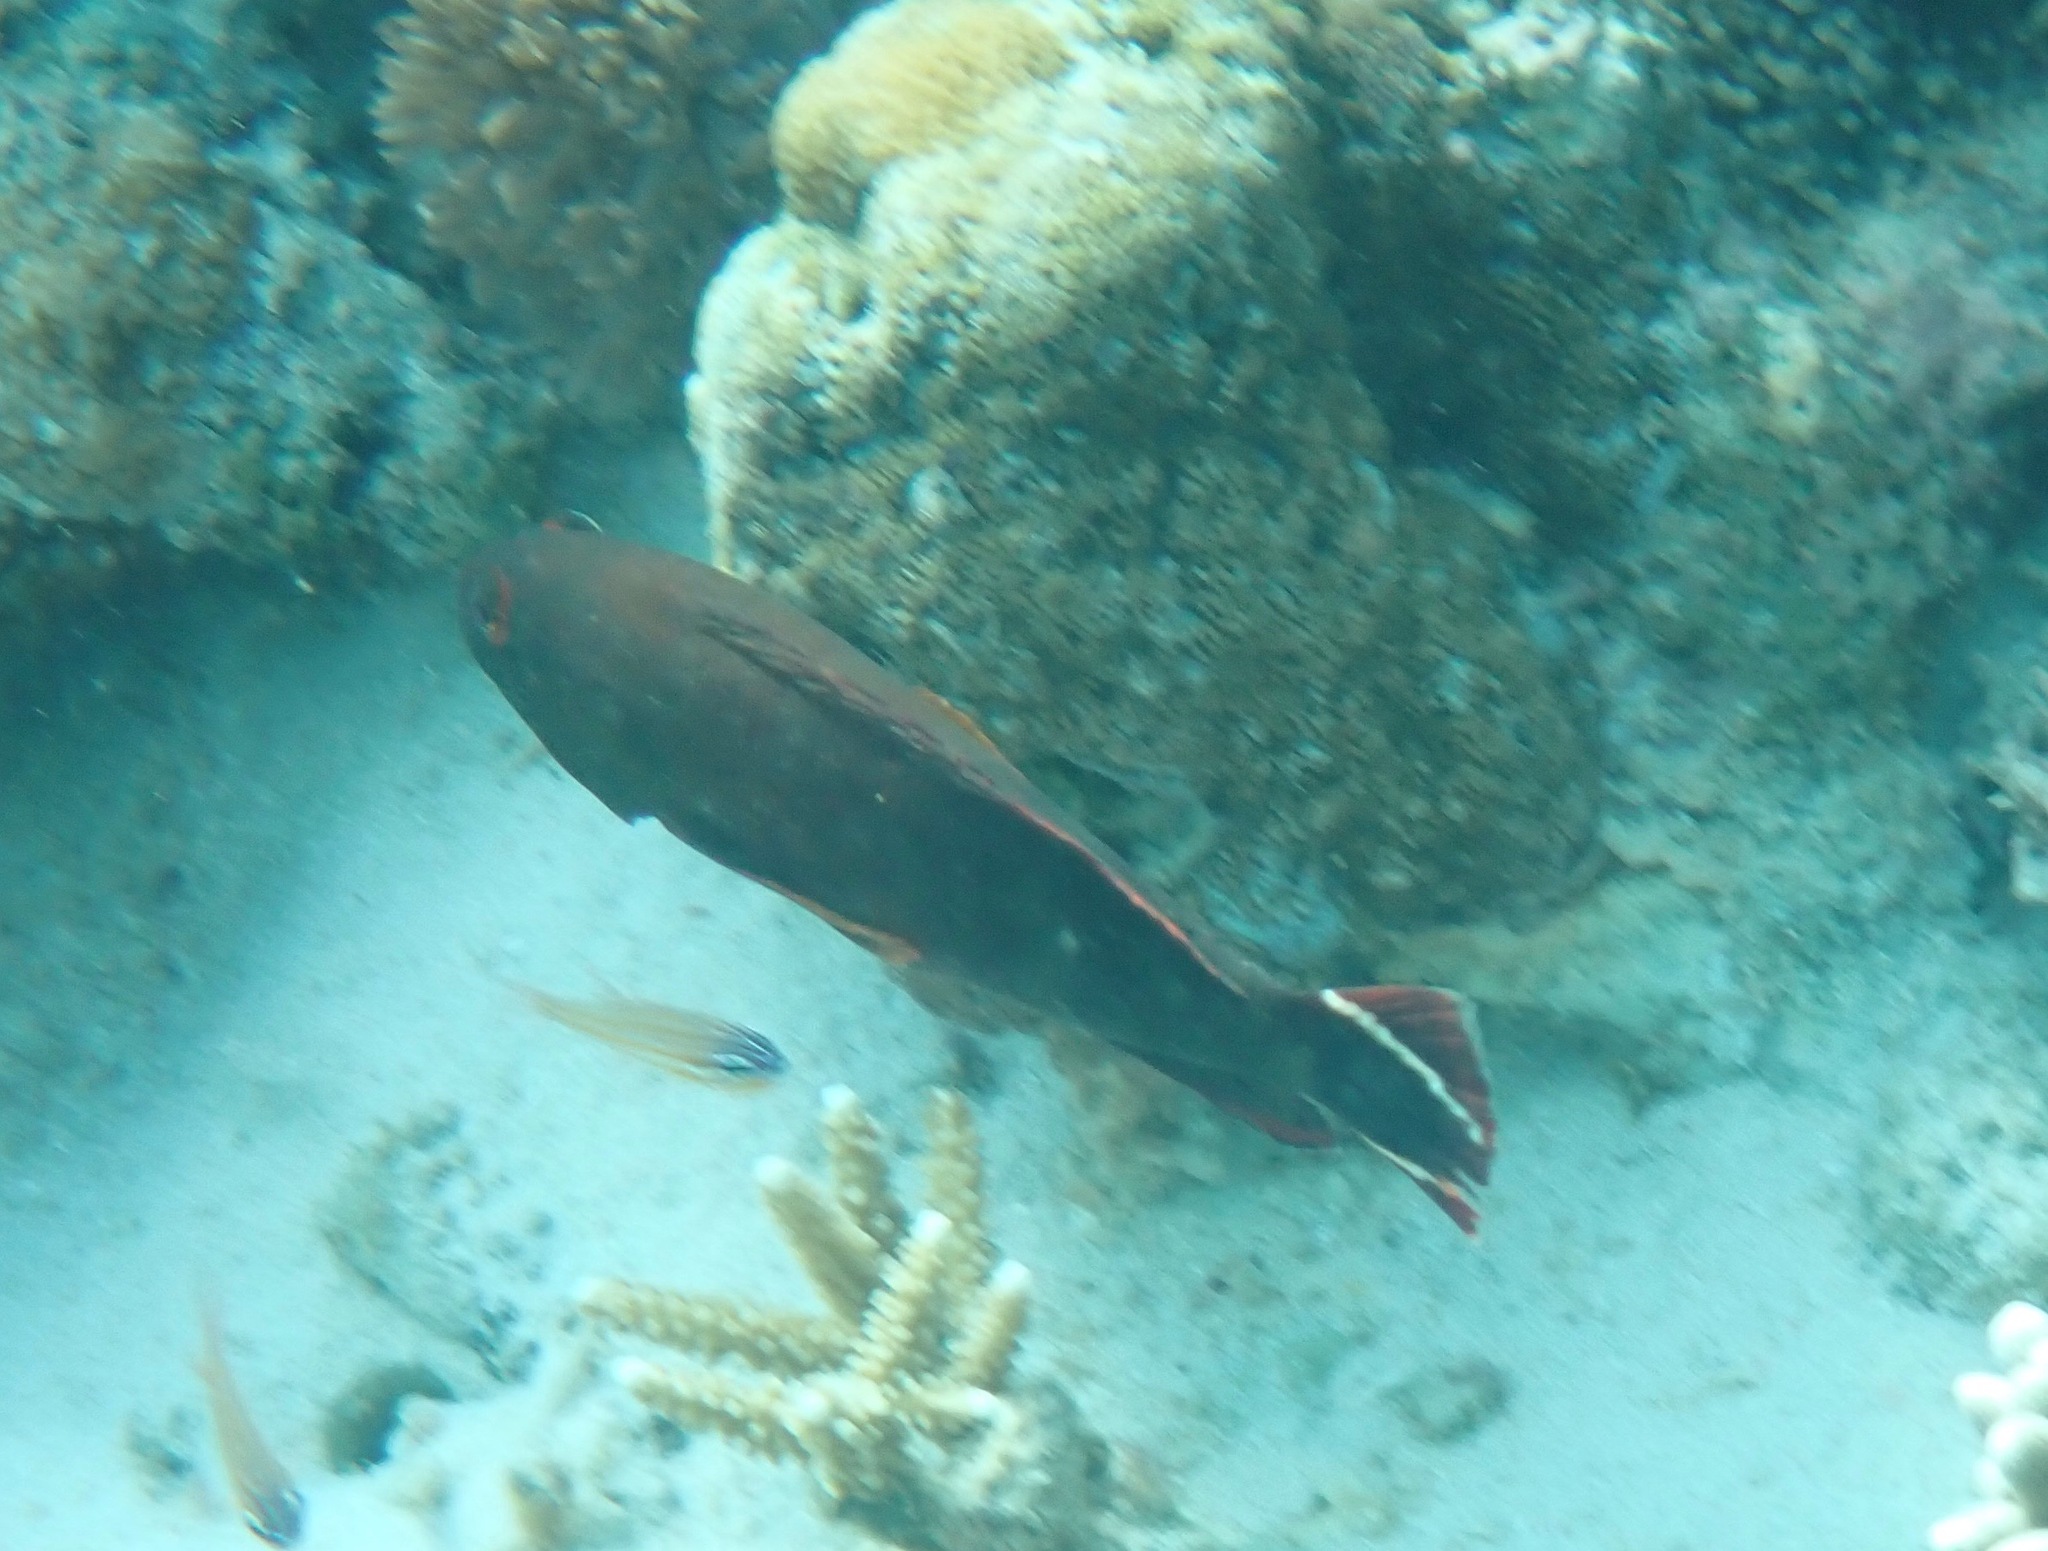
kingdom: Animalia
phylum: Chordata
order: Perciformes
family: Serranidae
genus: Cephalopholis
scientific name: Cephalopholis urodeta
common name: Darkfin hind
